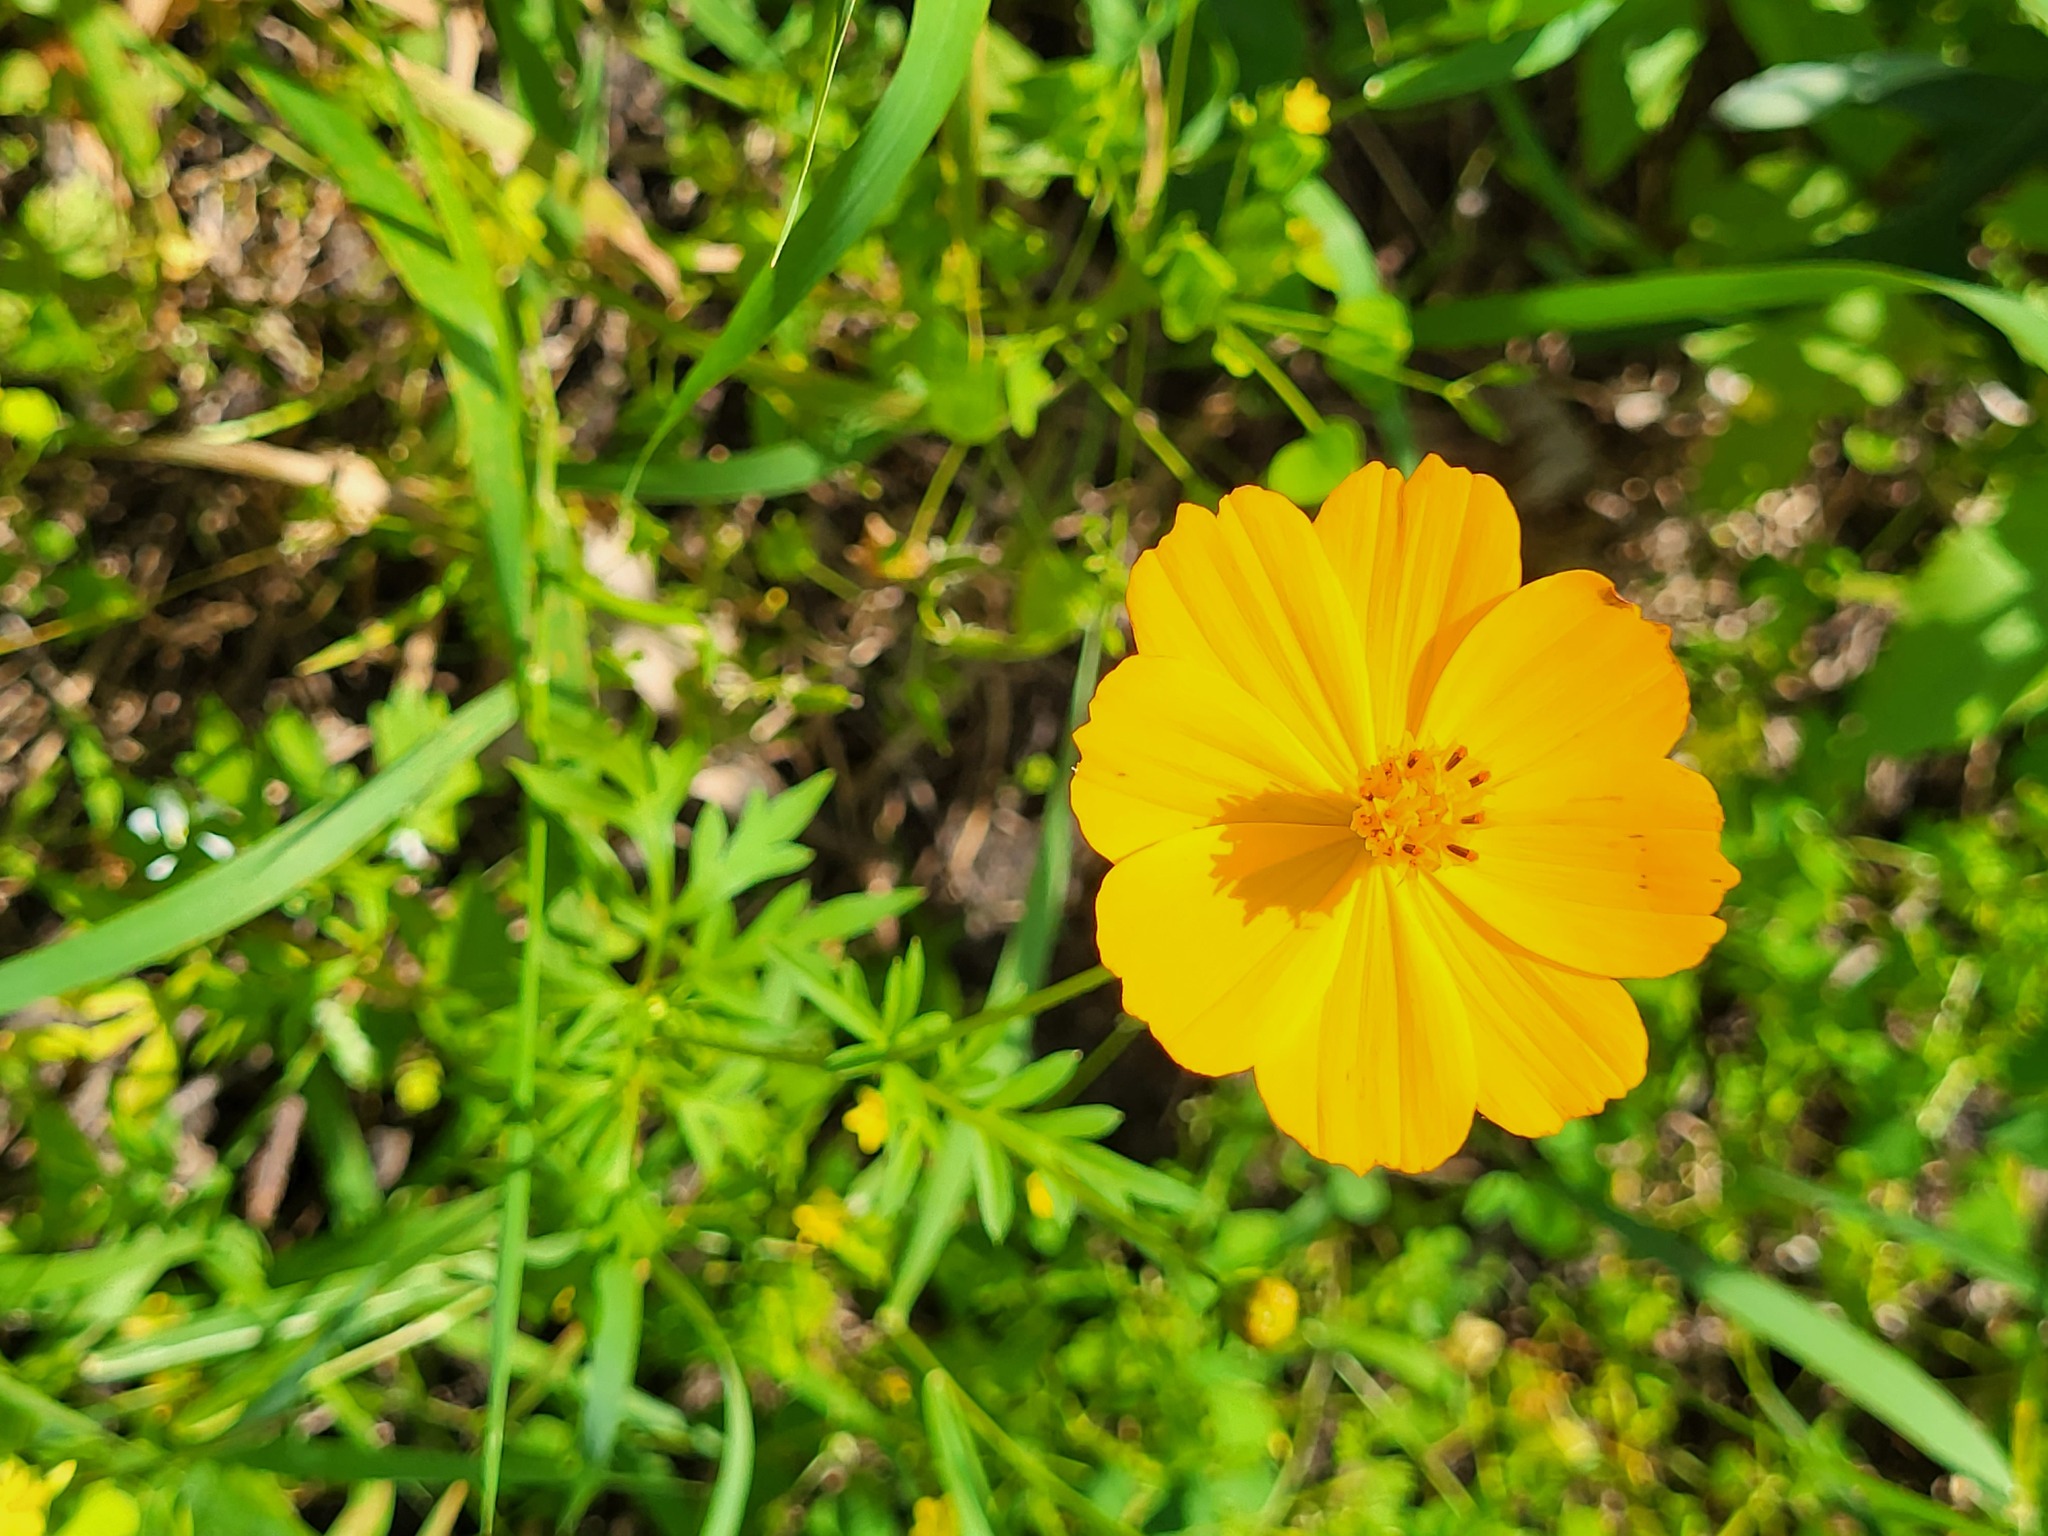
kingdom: Plantae
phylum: Tracheophyta
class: Magnoliopsida
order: Asterales
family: Asteraceae
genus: Cosmos
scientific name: Cosmos sulphureus
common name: Sulphur cosmos
